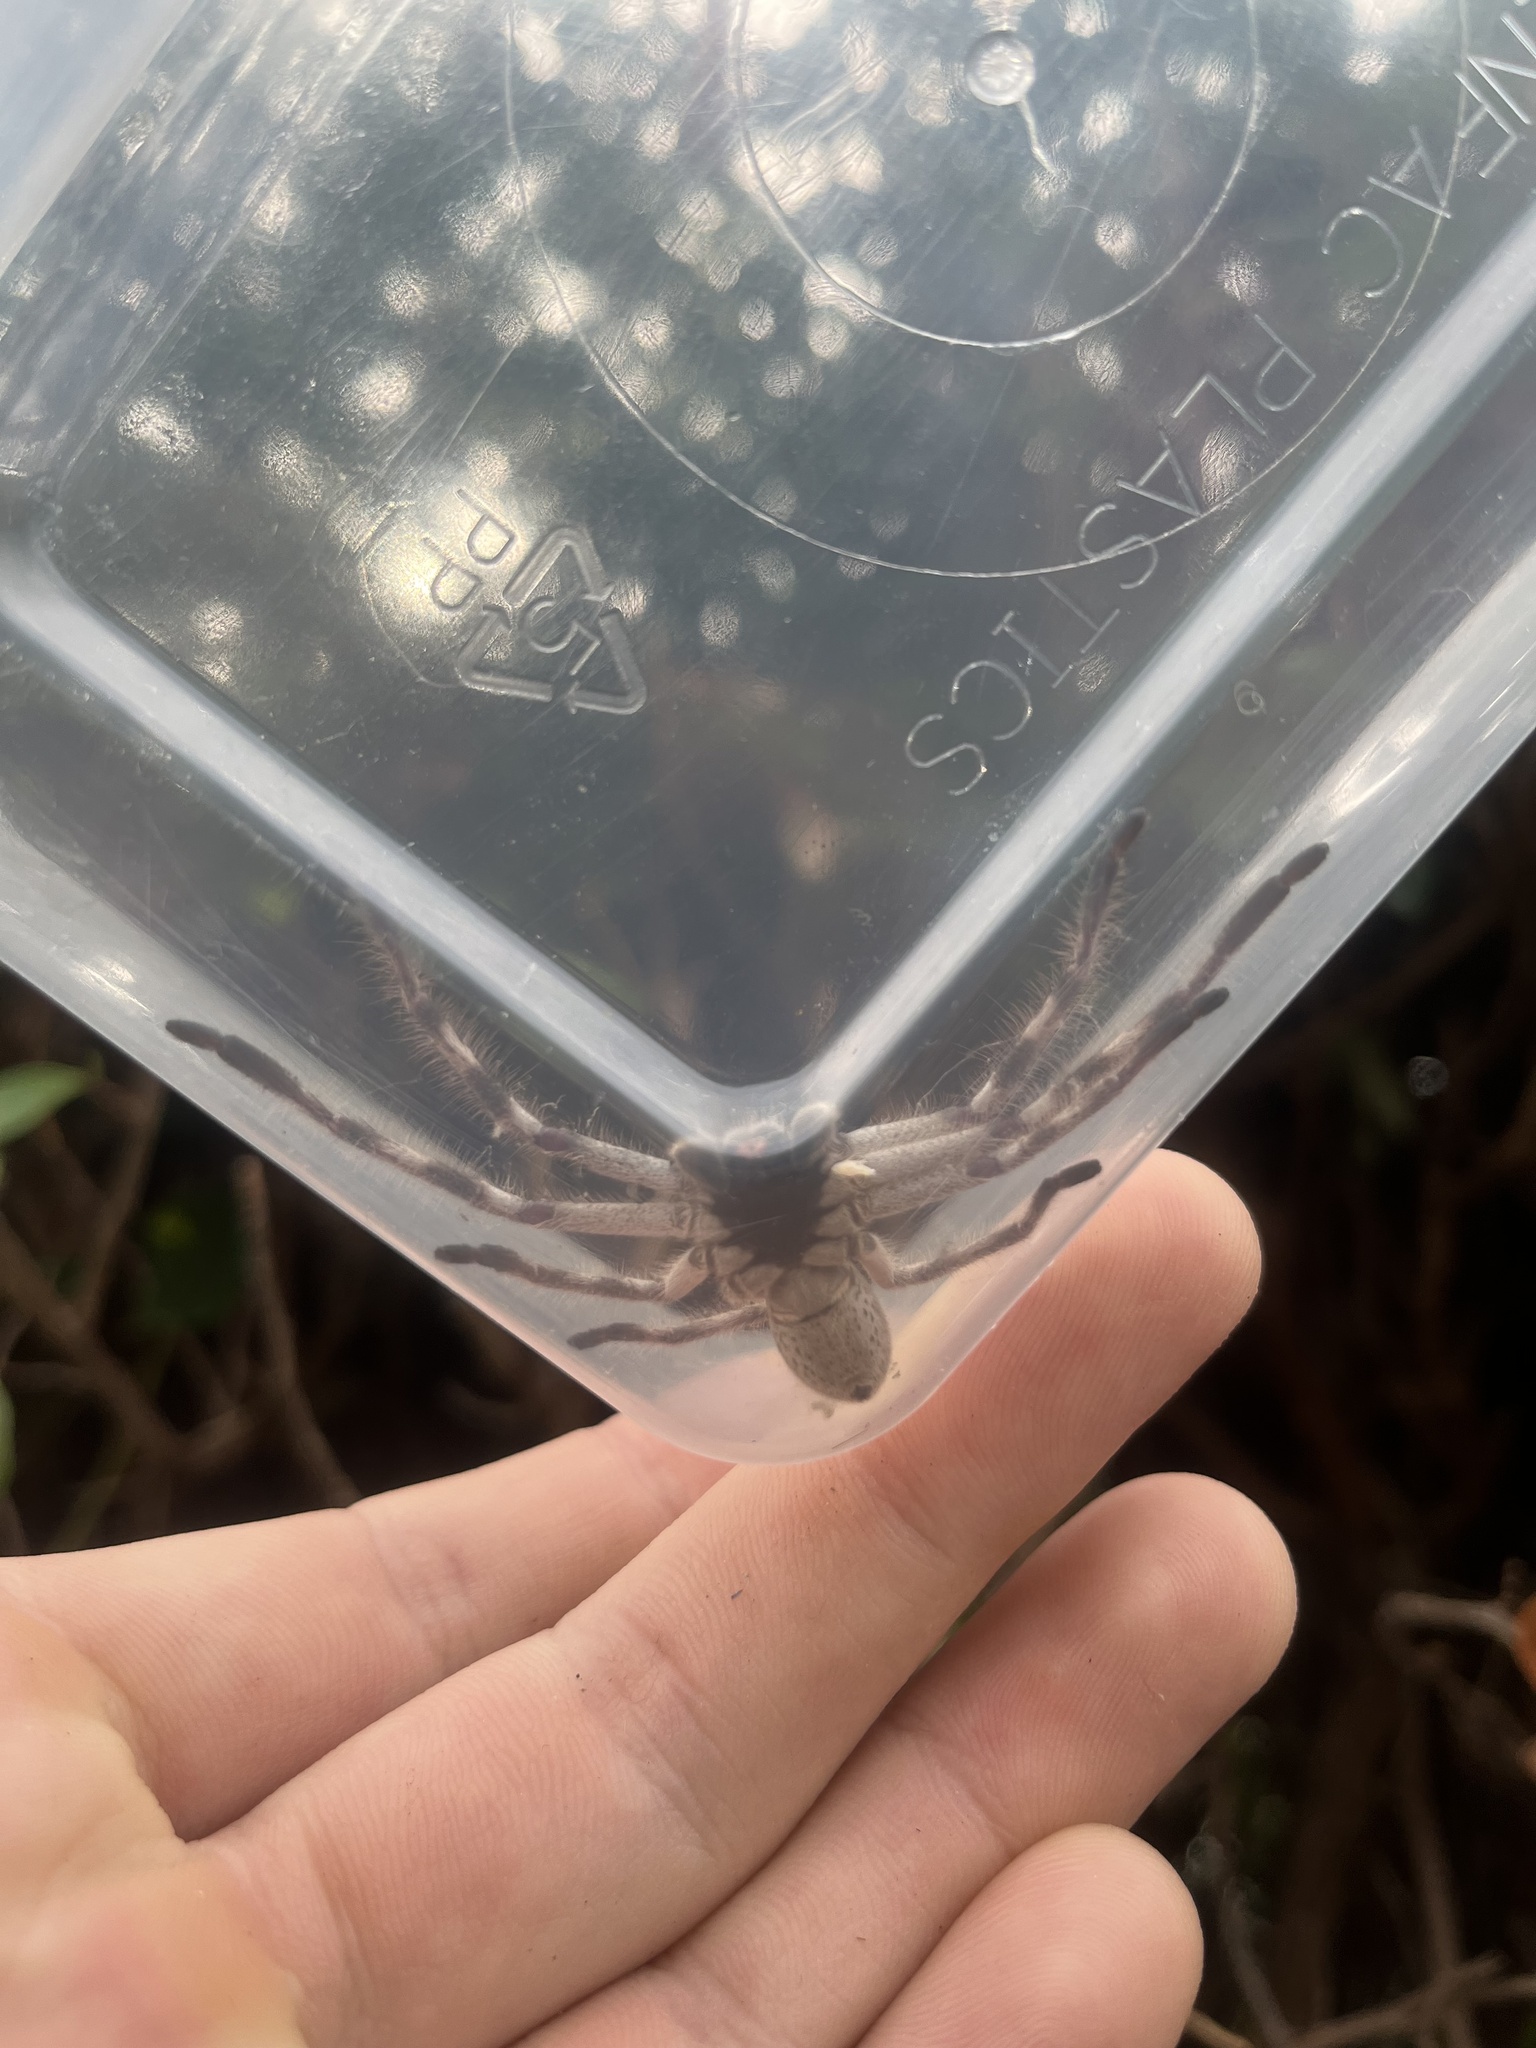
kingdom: Animalia
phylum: Arthropoda
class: Arachnida
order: Araneae
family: Sparassidae
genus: Isopedella
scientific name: Isopedella victorialis
